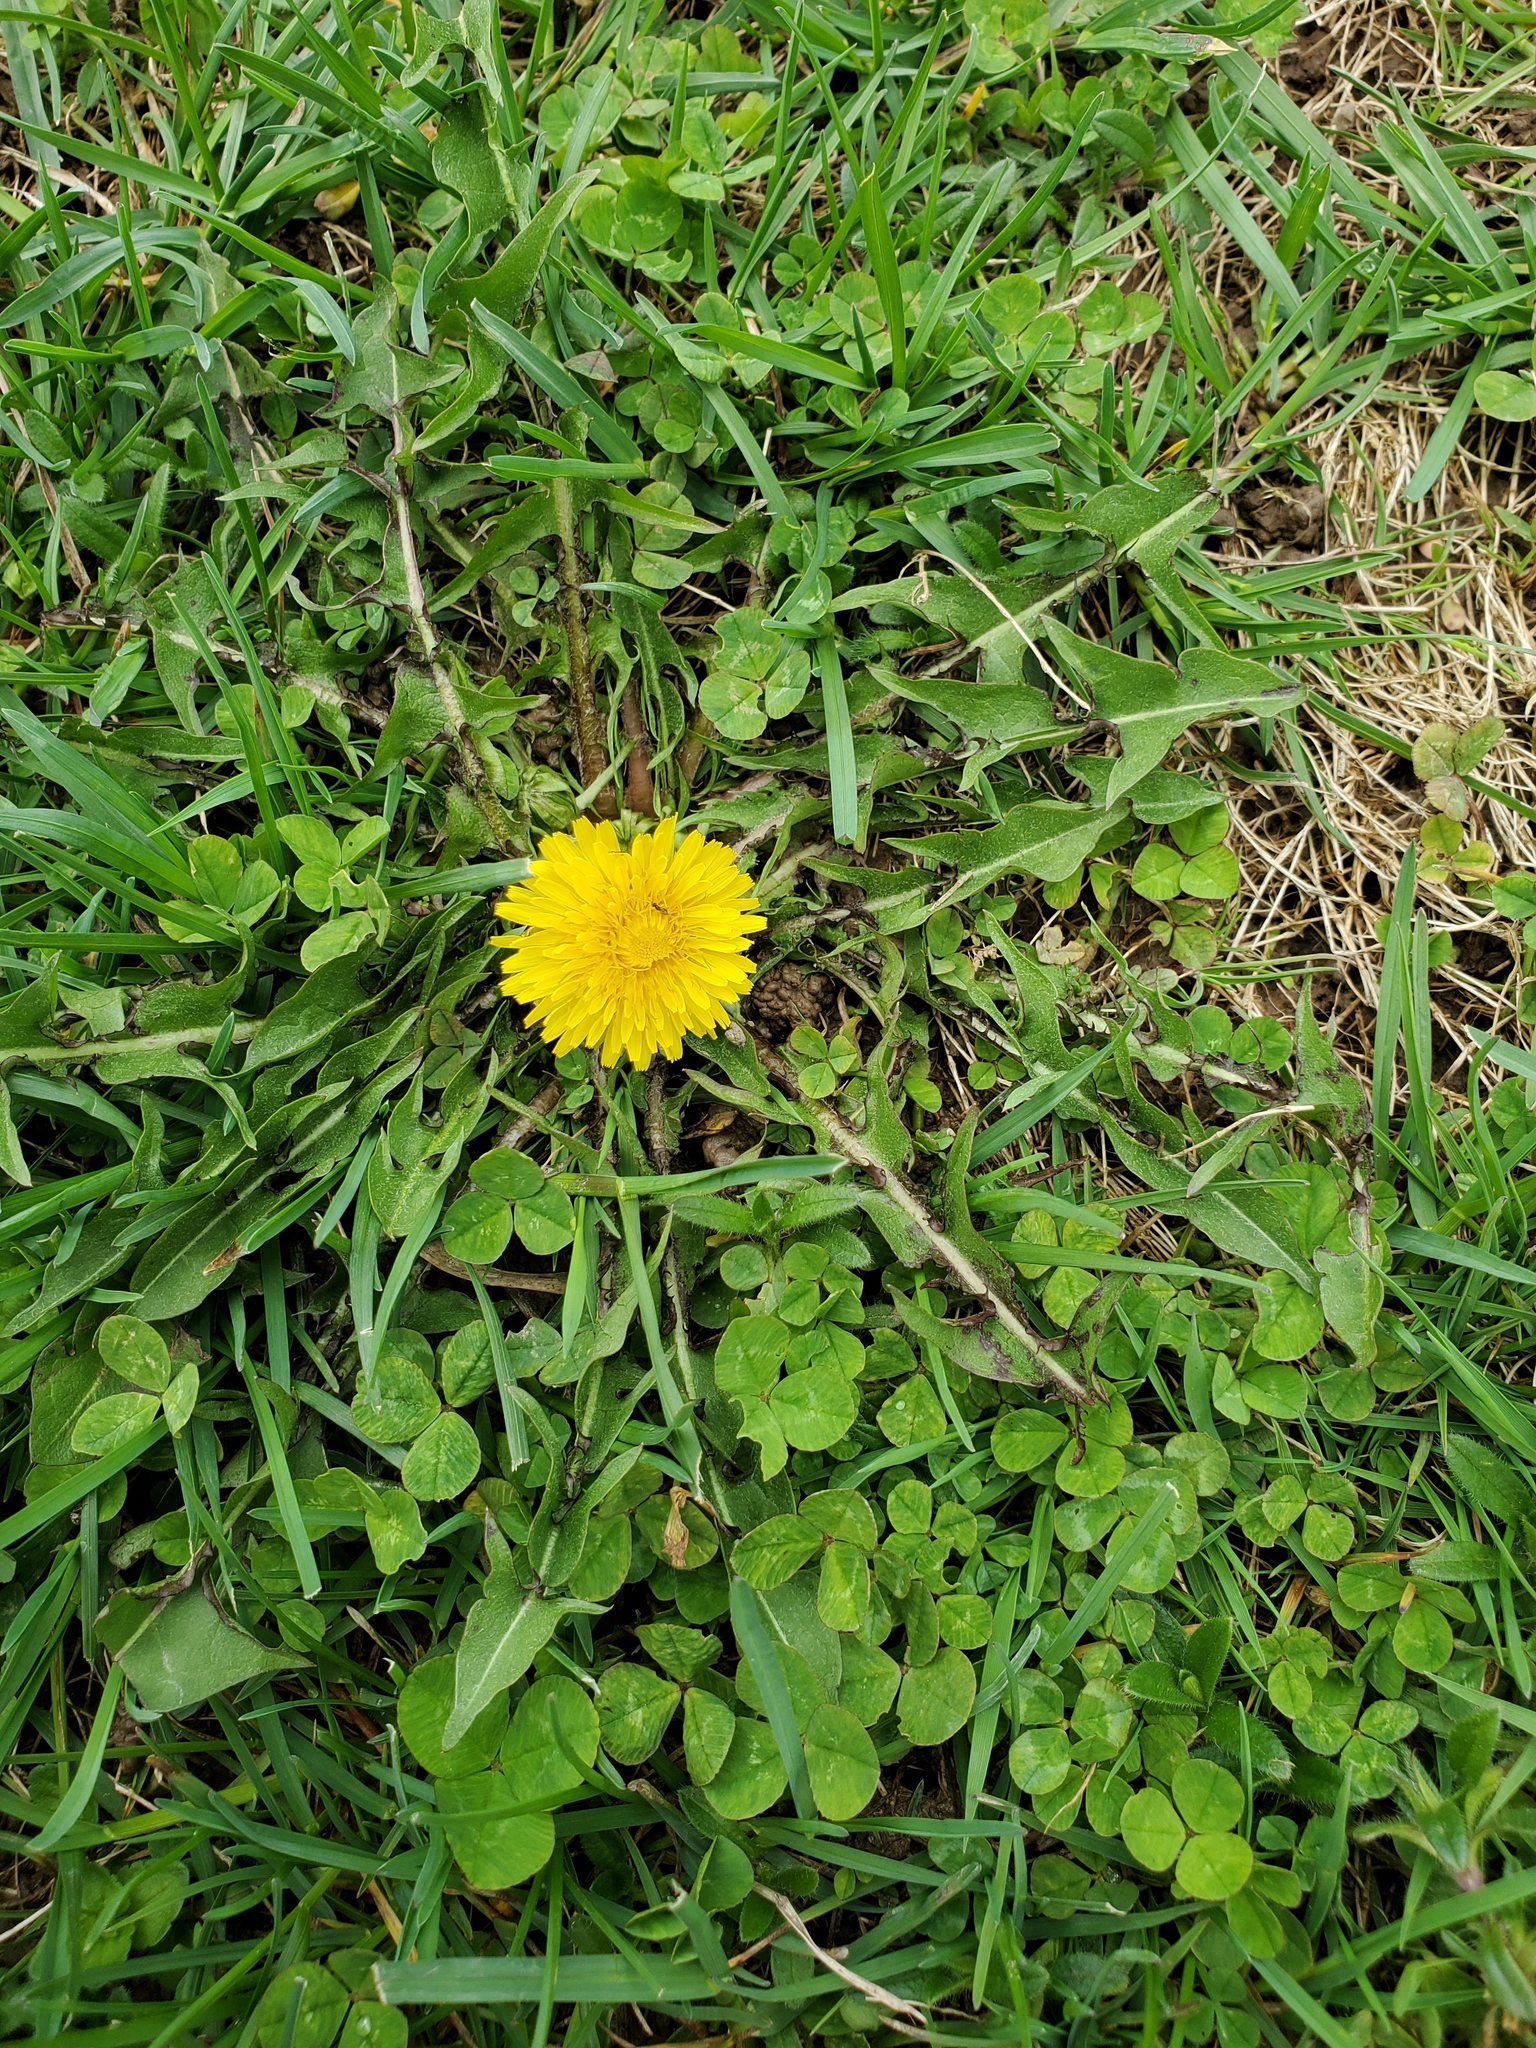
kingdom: Plantae
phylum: Tracheophyta
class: Magnoliopsida
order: Asterales
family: Asteraceae
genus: Taraxacum
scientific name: Taraxacum officinale
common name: Common dandelion
